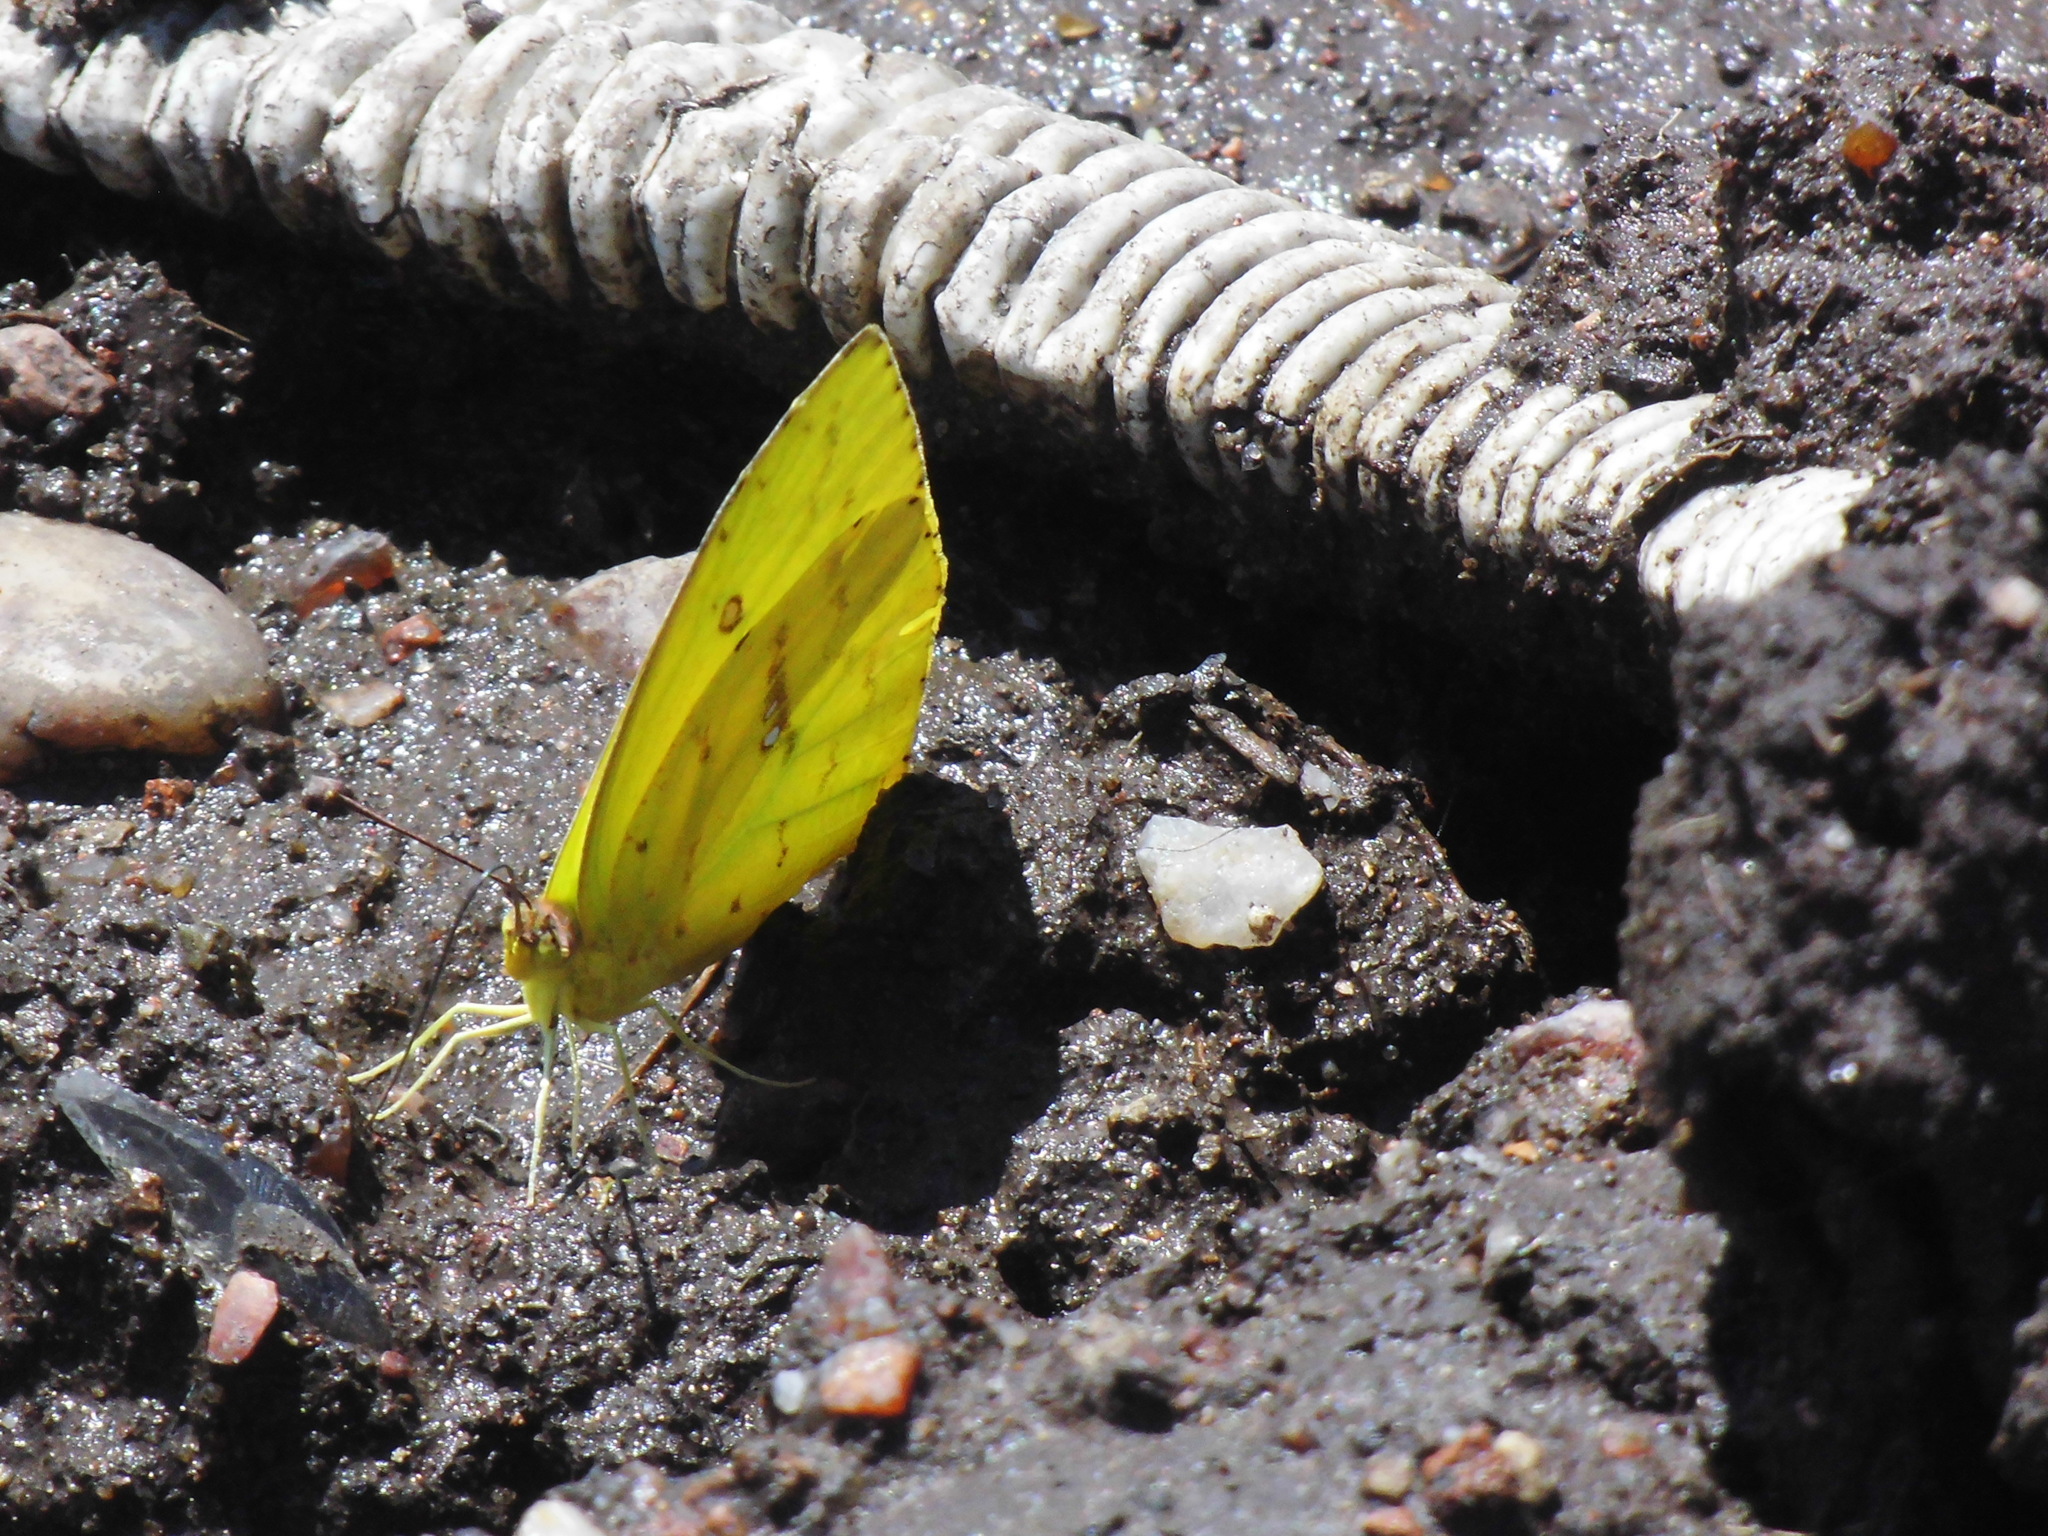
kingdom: Animalia
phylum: Arthropoda
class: Insecta
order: Lepidoptera
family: Pieridae
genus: Phoebis
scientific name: Phoebis sennae
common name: Cloudless sulphur
